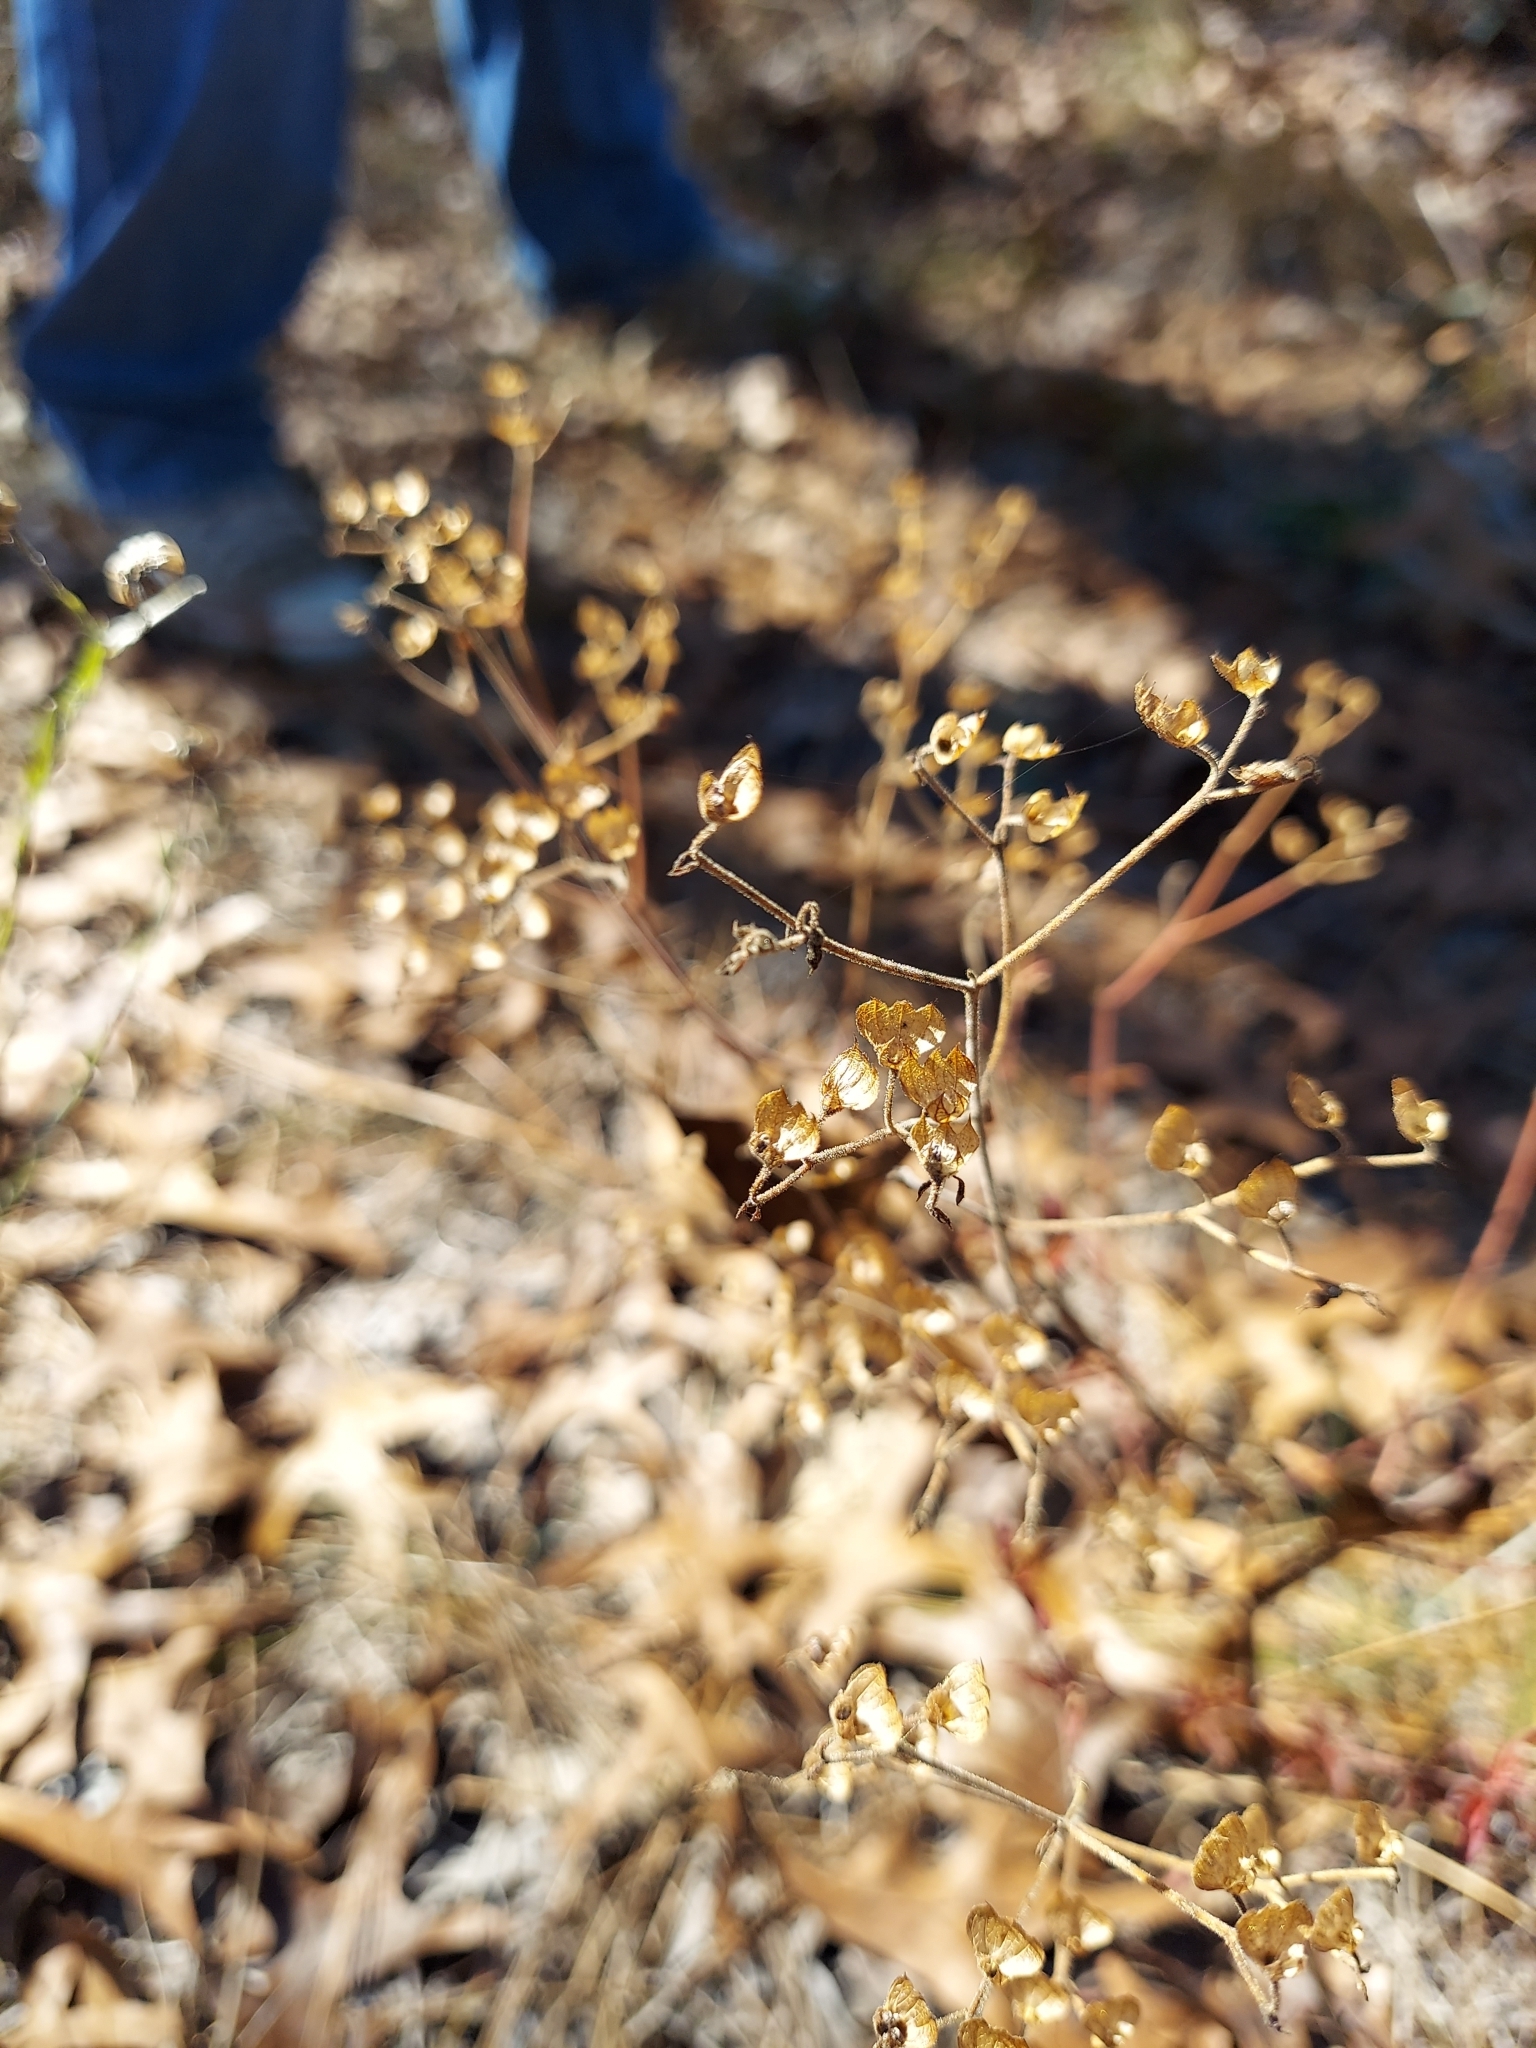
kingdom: Plantae
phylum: Tracheophyta
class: Magnoliopsida
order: Lamiales
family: Lamiaceae
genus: Trichostema
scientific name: Trichostema microphyllum
